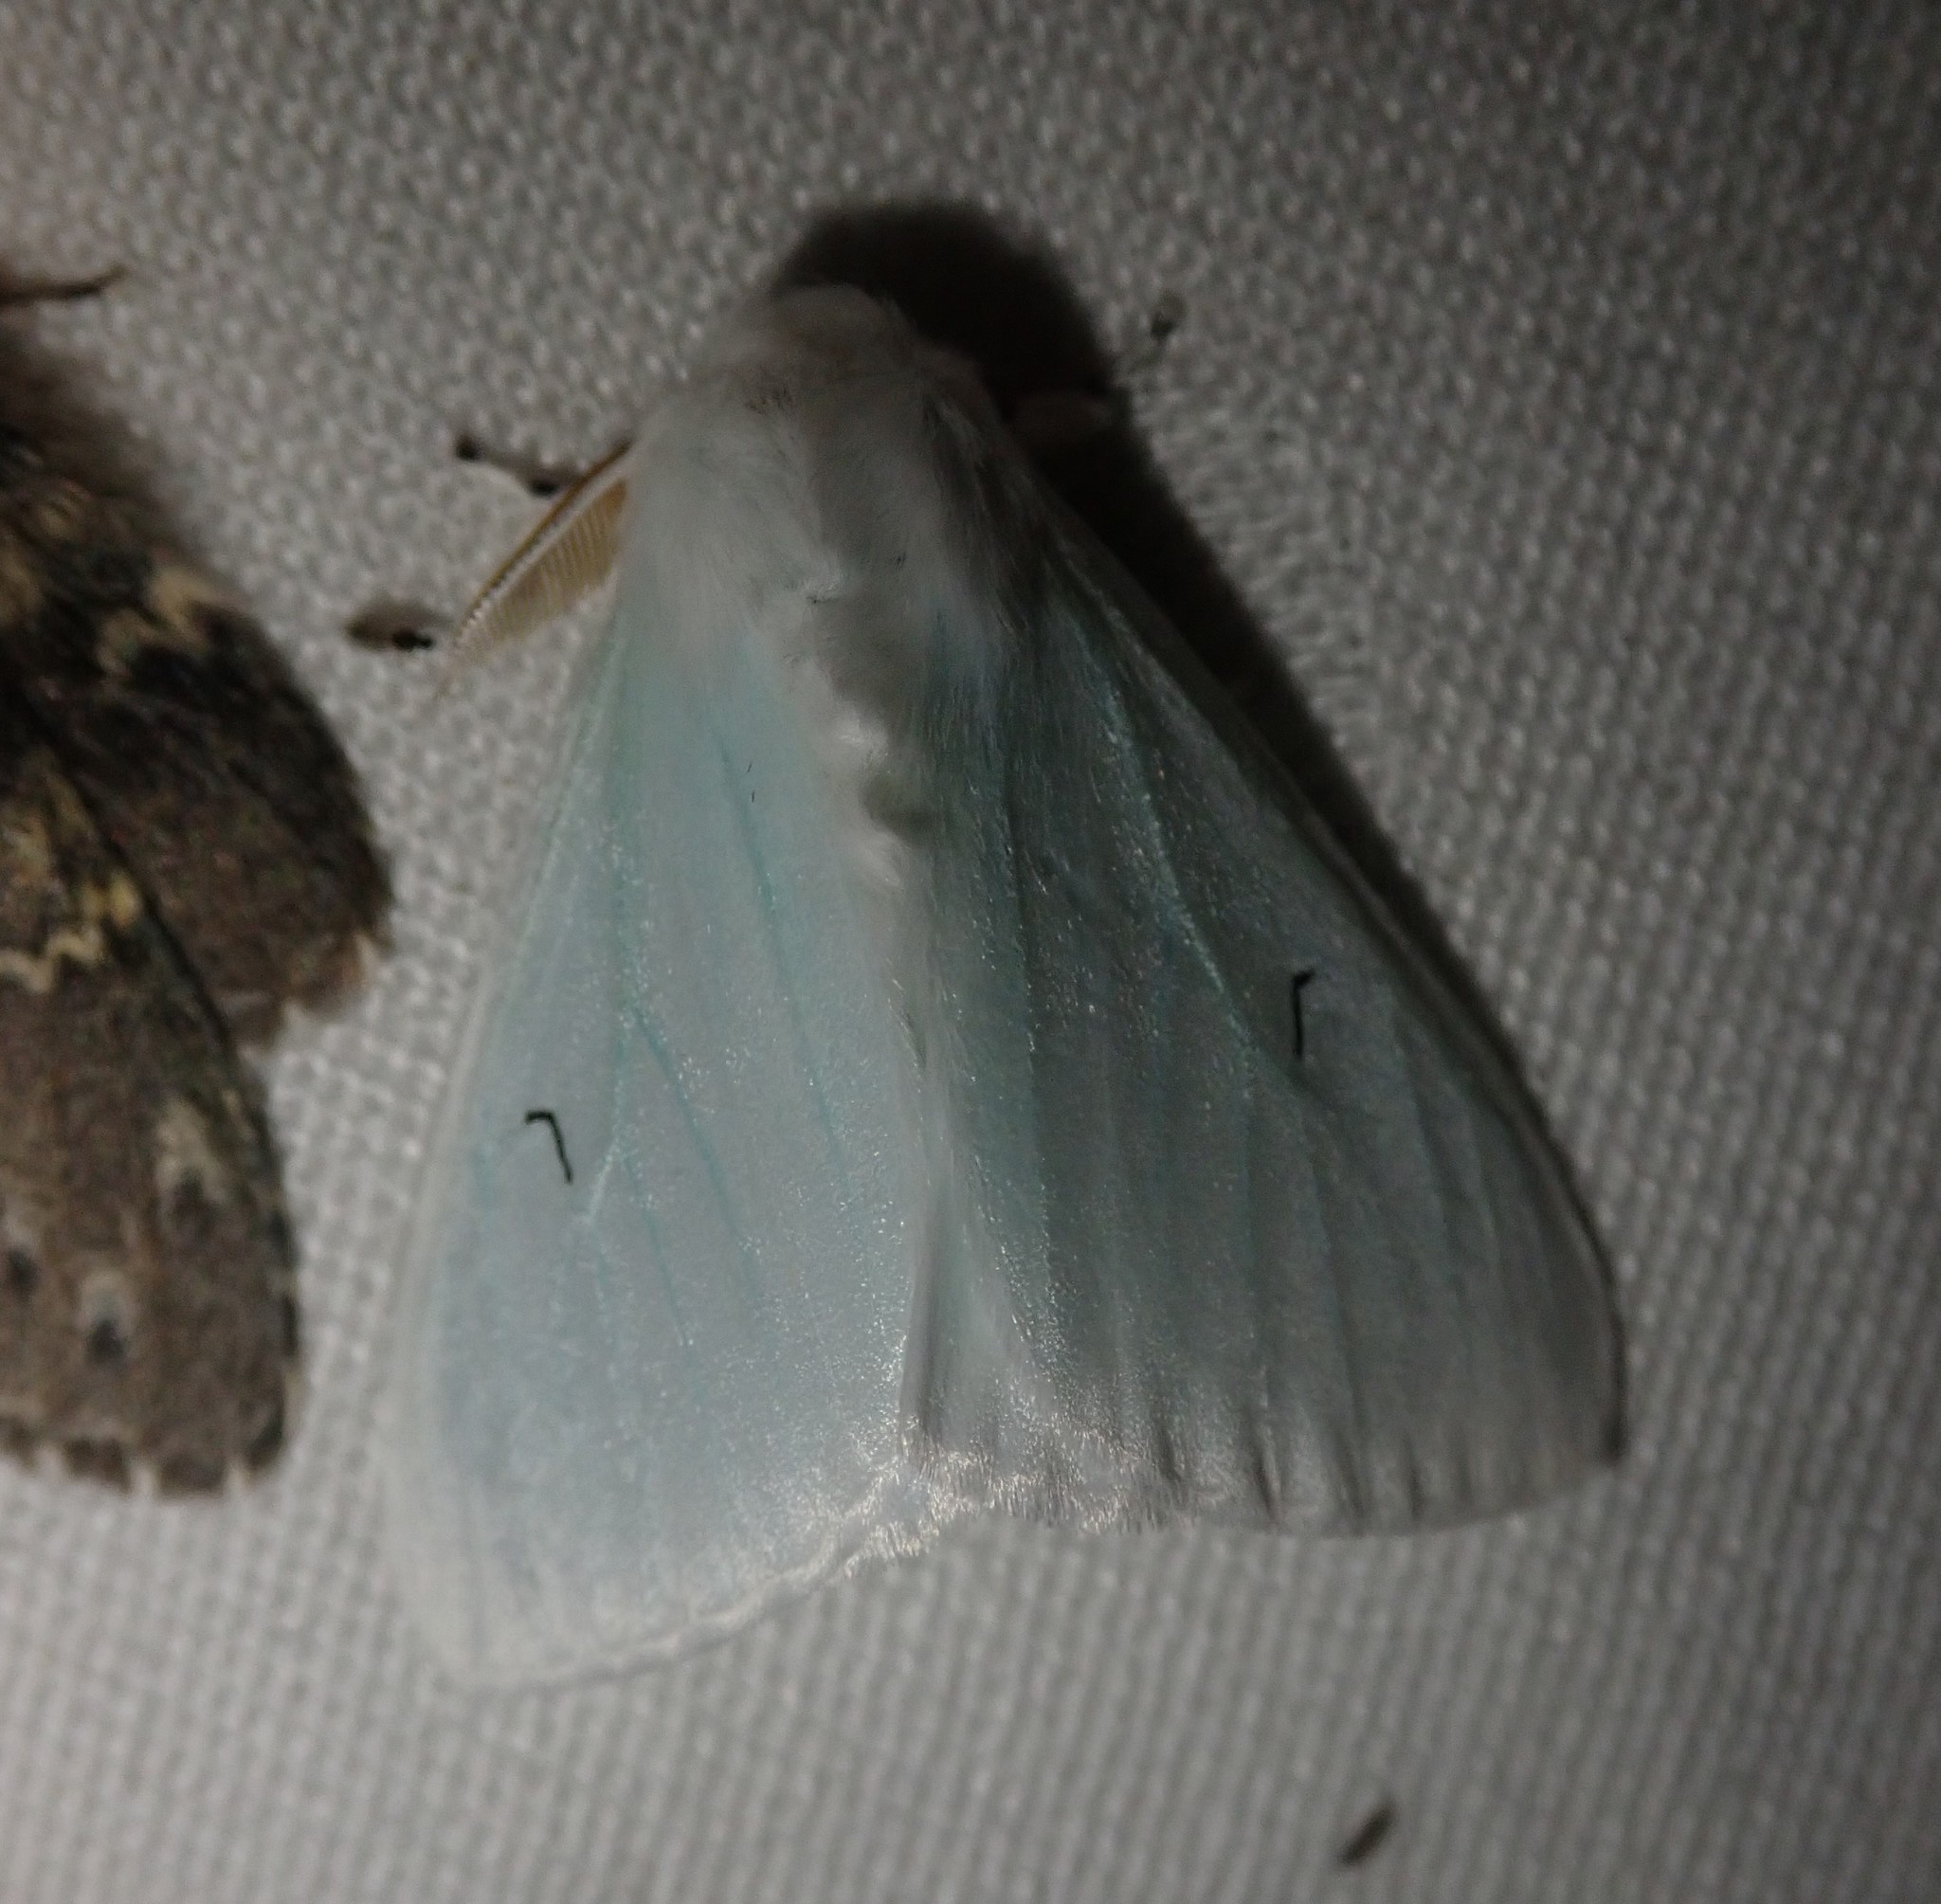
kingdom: Animalia
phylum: Arthropoda
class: Insecta
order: Lepidoptera
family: Erebidae
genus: Arctornis
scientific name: Arctornis l-nigrum
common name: Black v moth
